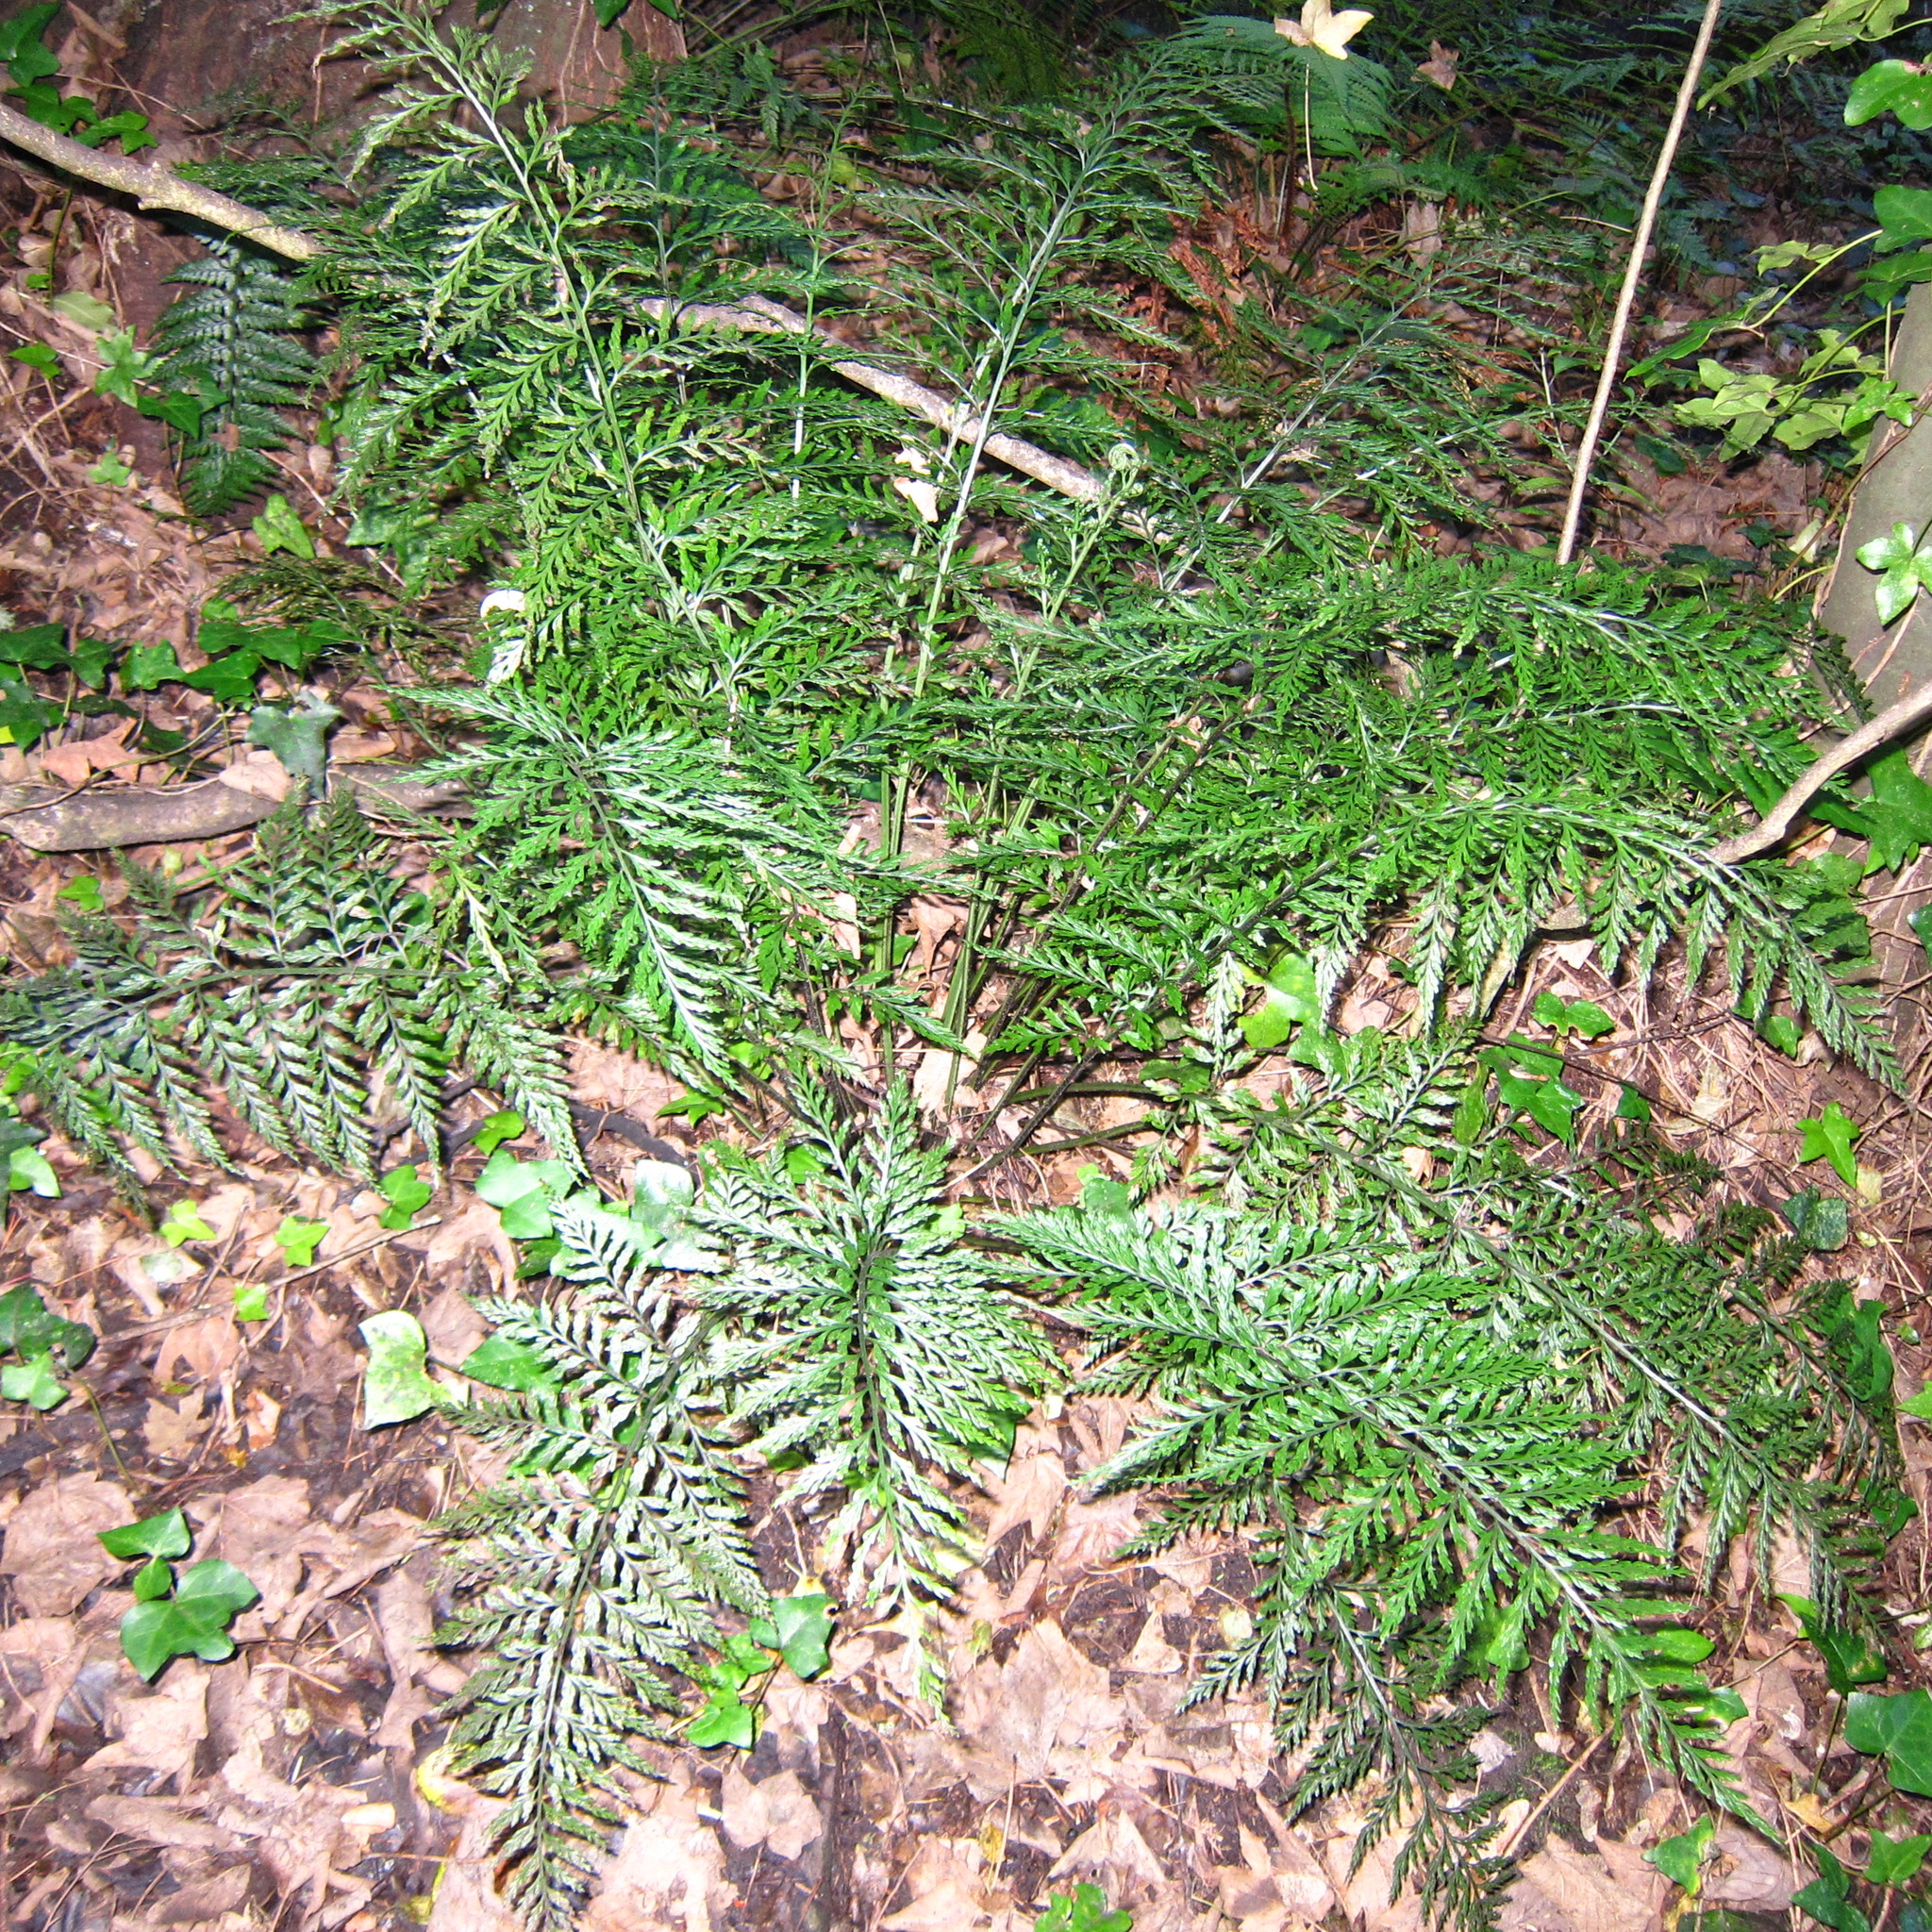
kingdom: Plantae
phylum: Tracheophyta
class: Polypodiopsida
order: Polypodiales
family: Aspleniaceae
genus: Asplenium
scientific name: Asplenium
